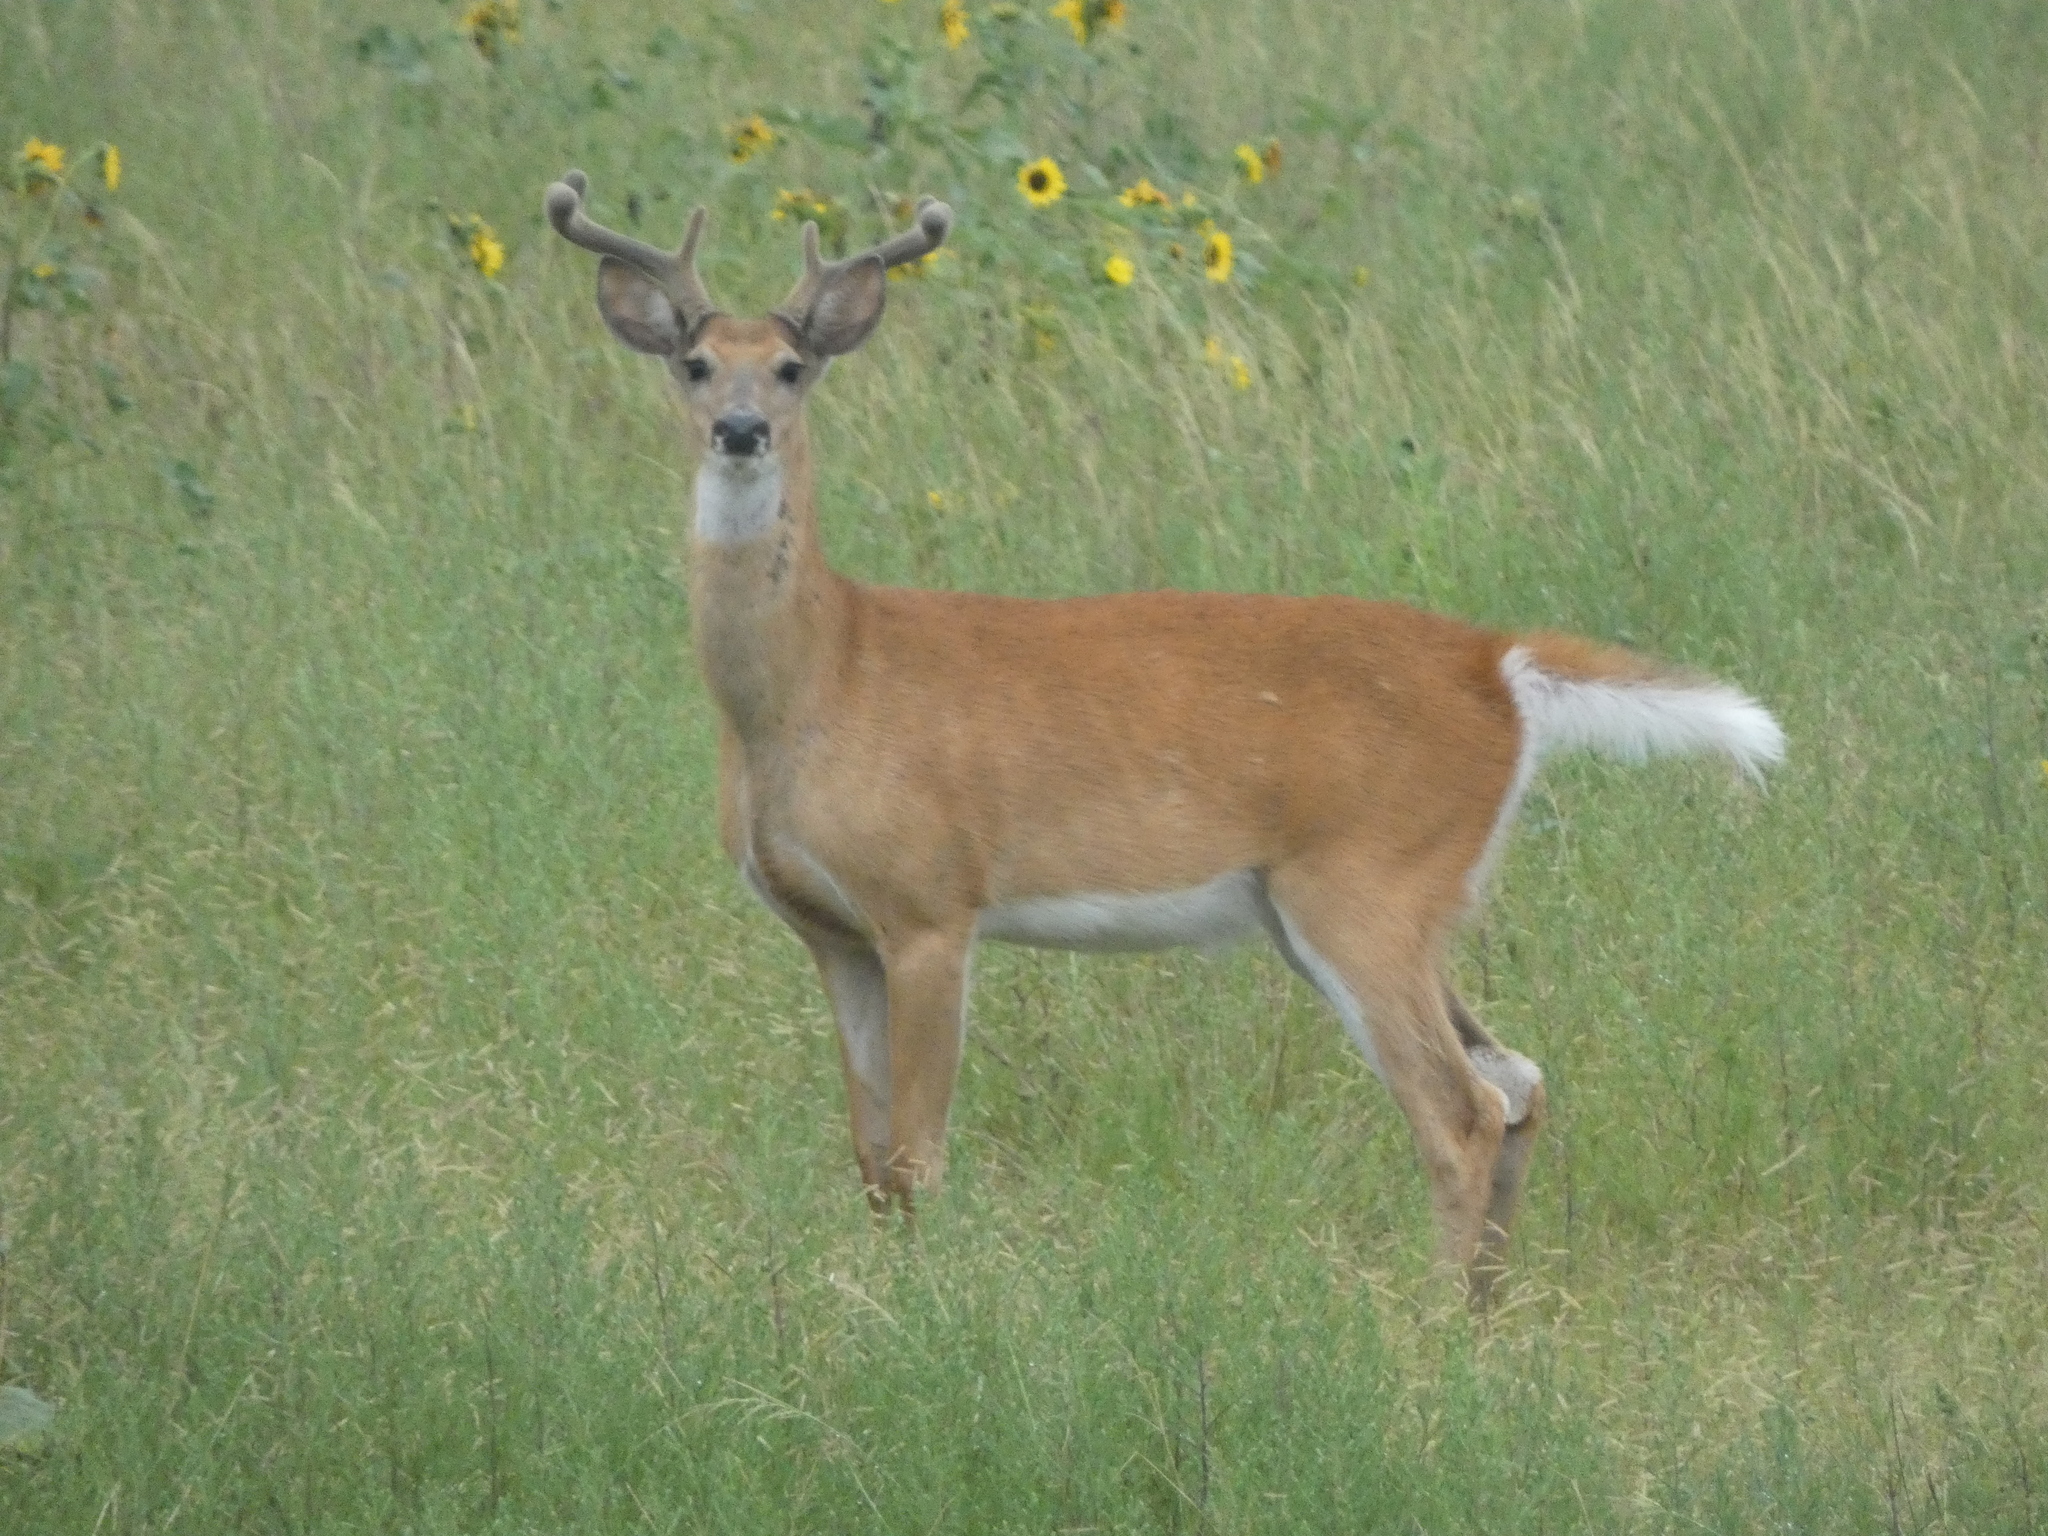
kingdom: Animalia
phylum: Chordata
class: Mammalia
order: Artiodactyla
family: Cervidae
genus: Odocoileus
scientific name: Odocoileus virginianus
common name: White-tailed deer
